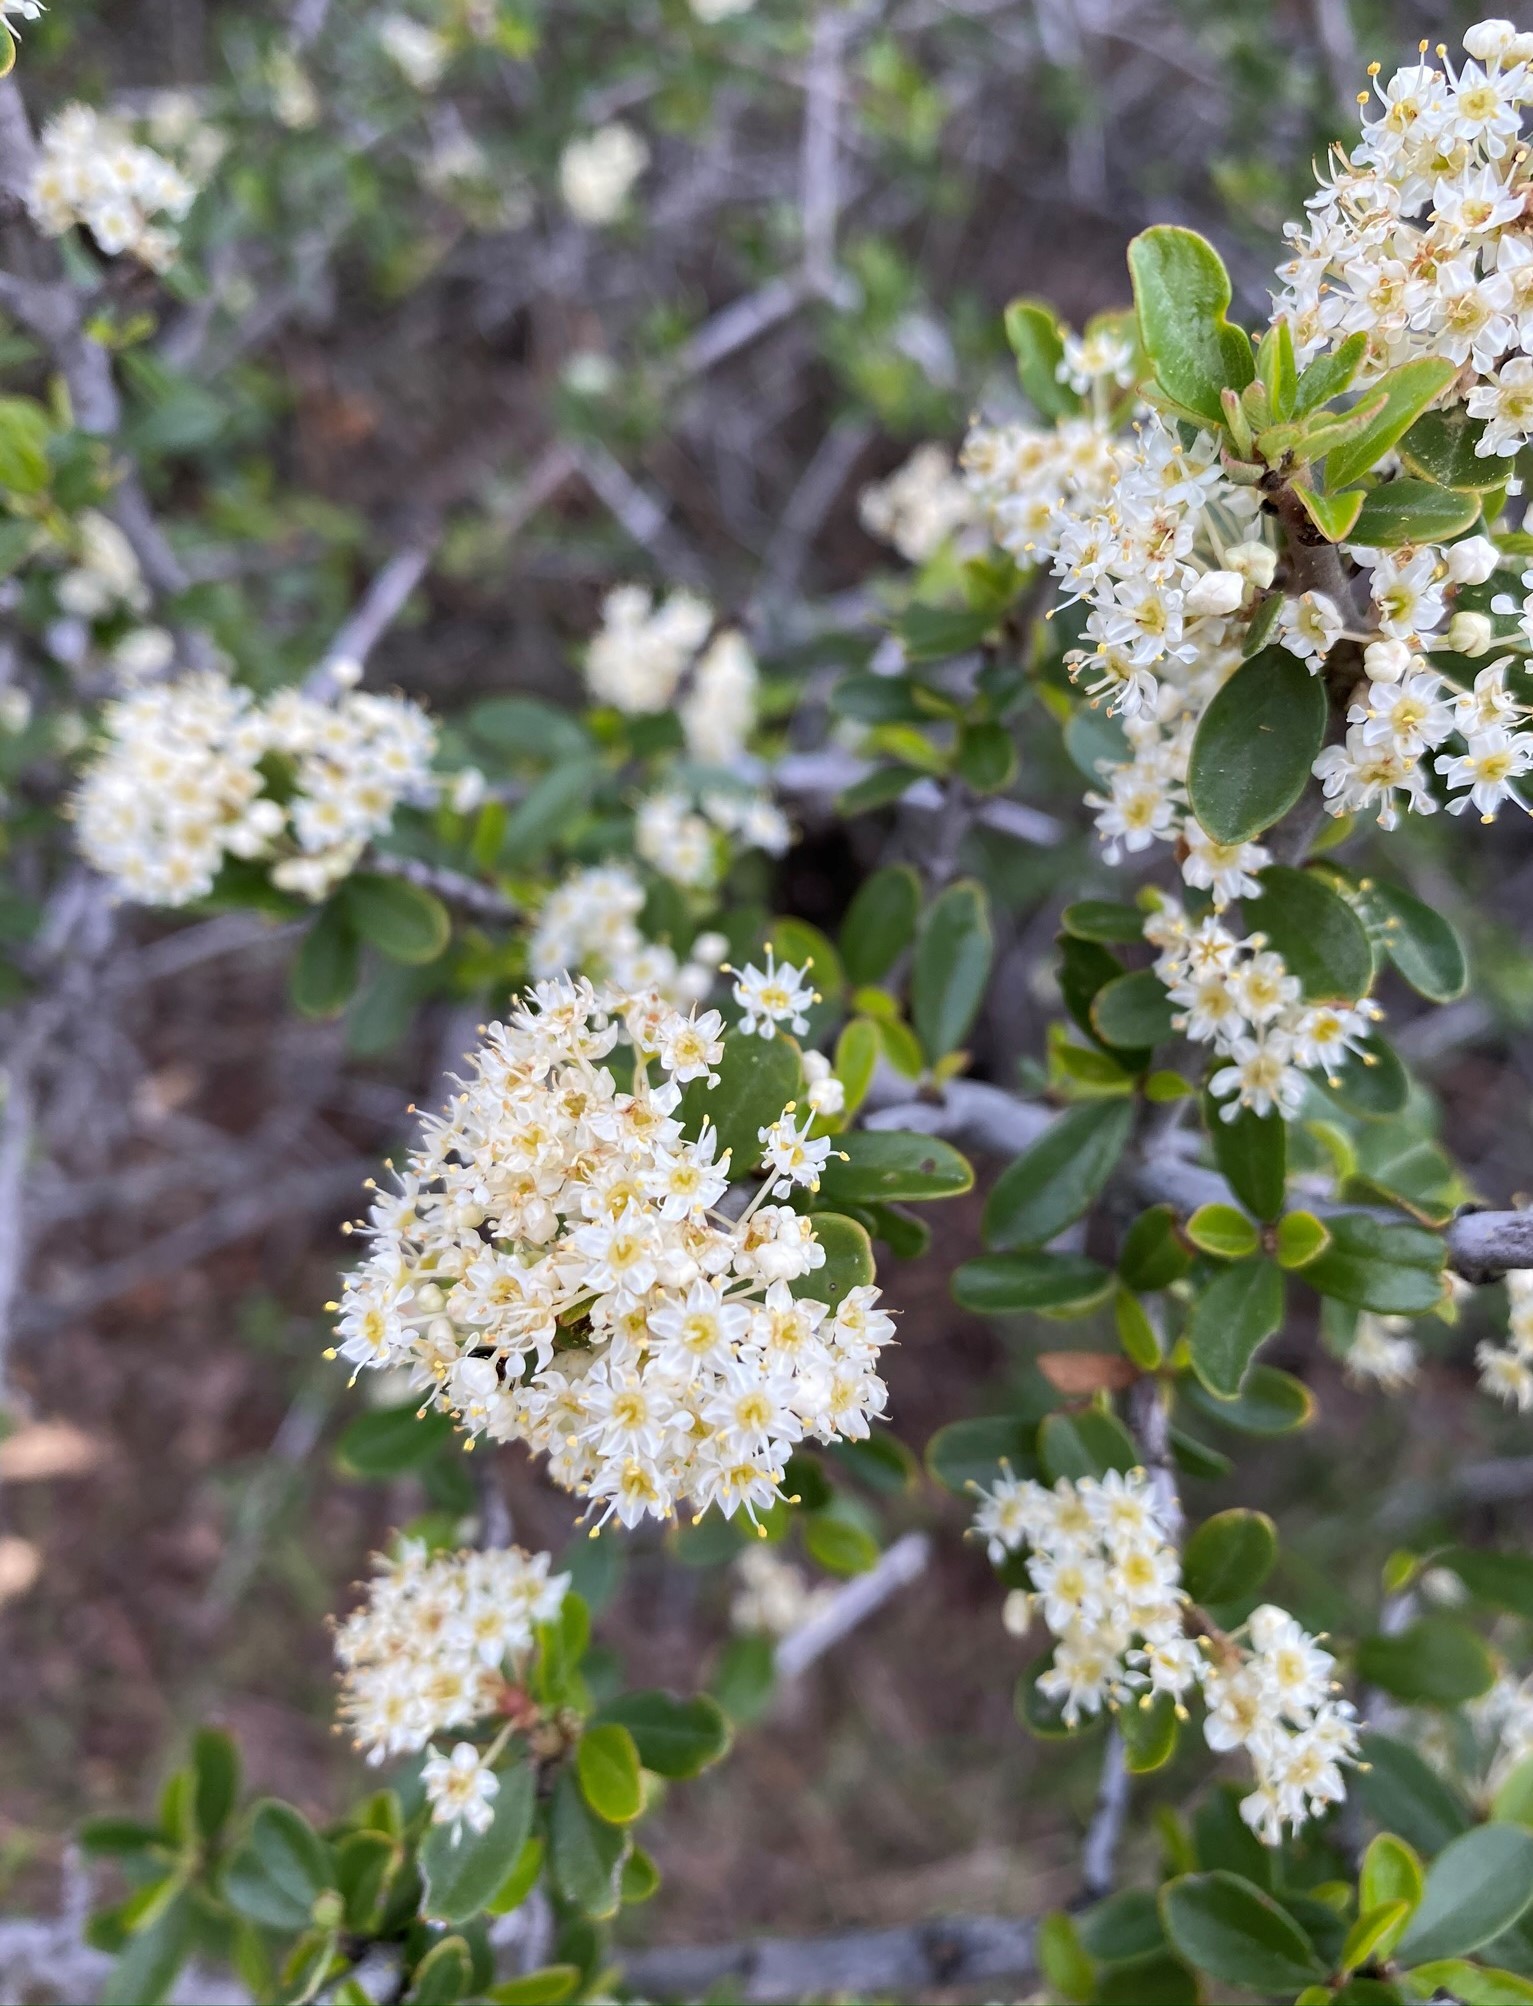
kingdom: Plantae
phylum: Tracheophyta
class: Magnoliopsida
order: Rosales
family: Rhamnaceae
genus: Ceanothus
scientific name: Ceanothus cuneatus
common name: Cuneate ceanothus
